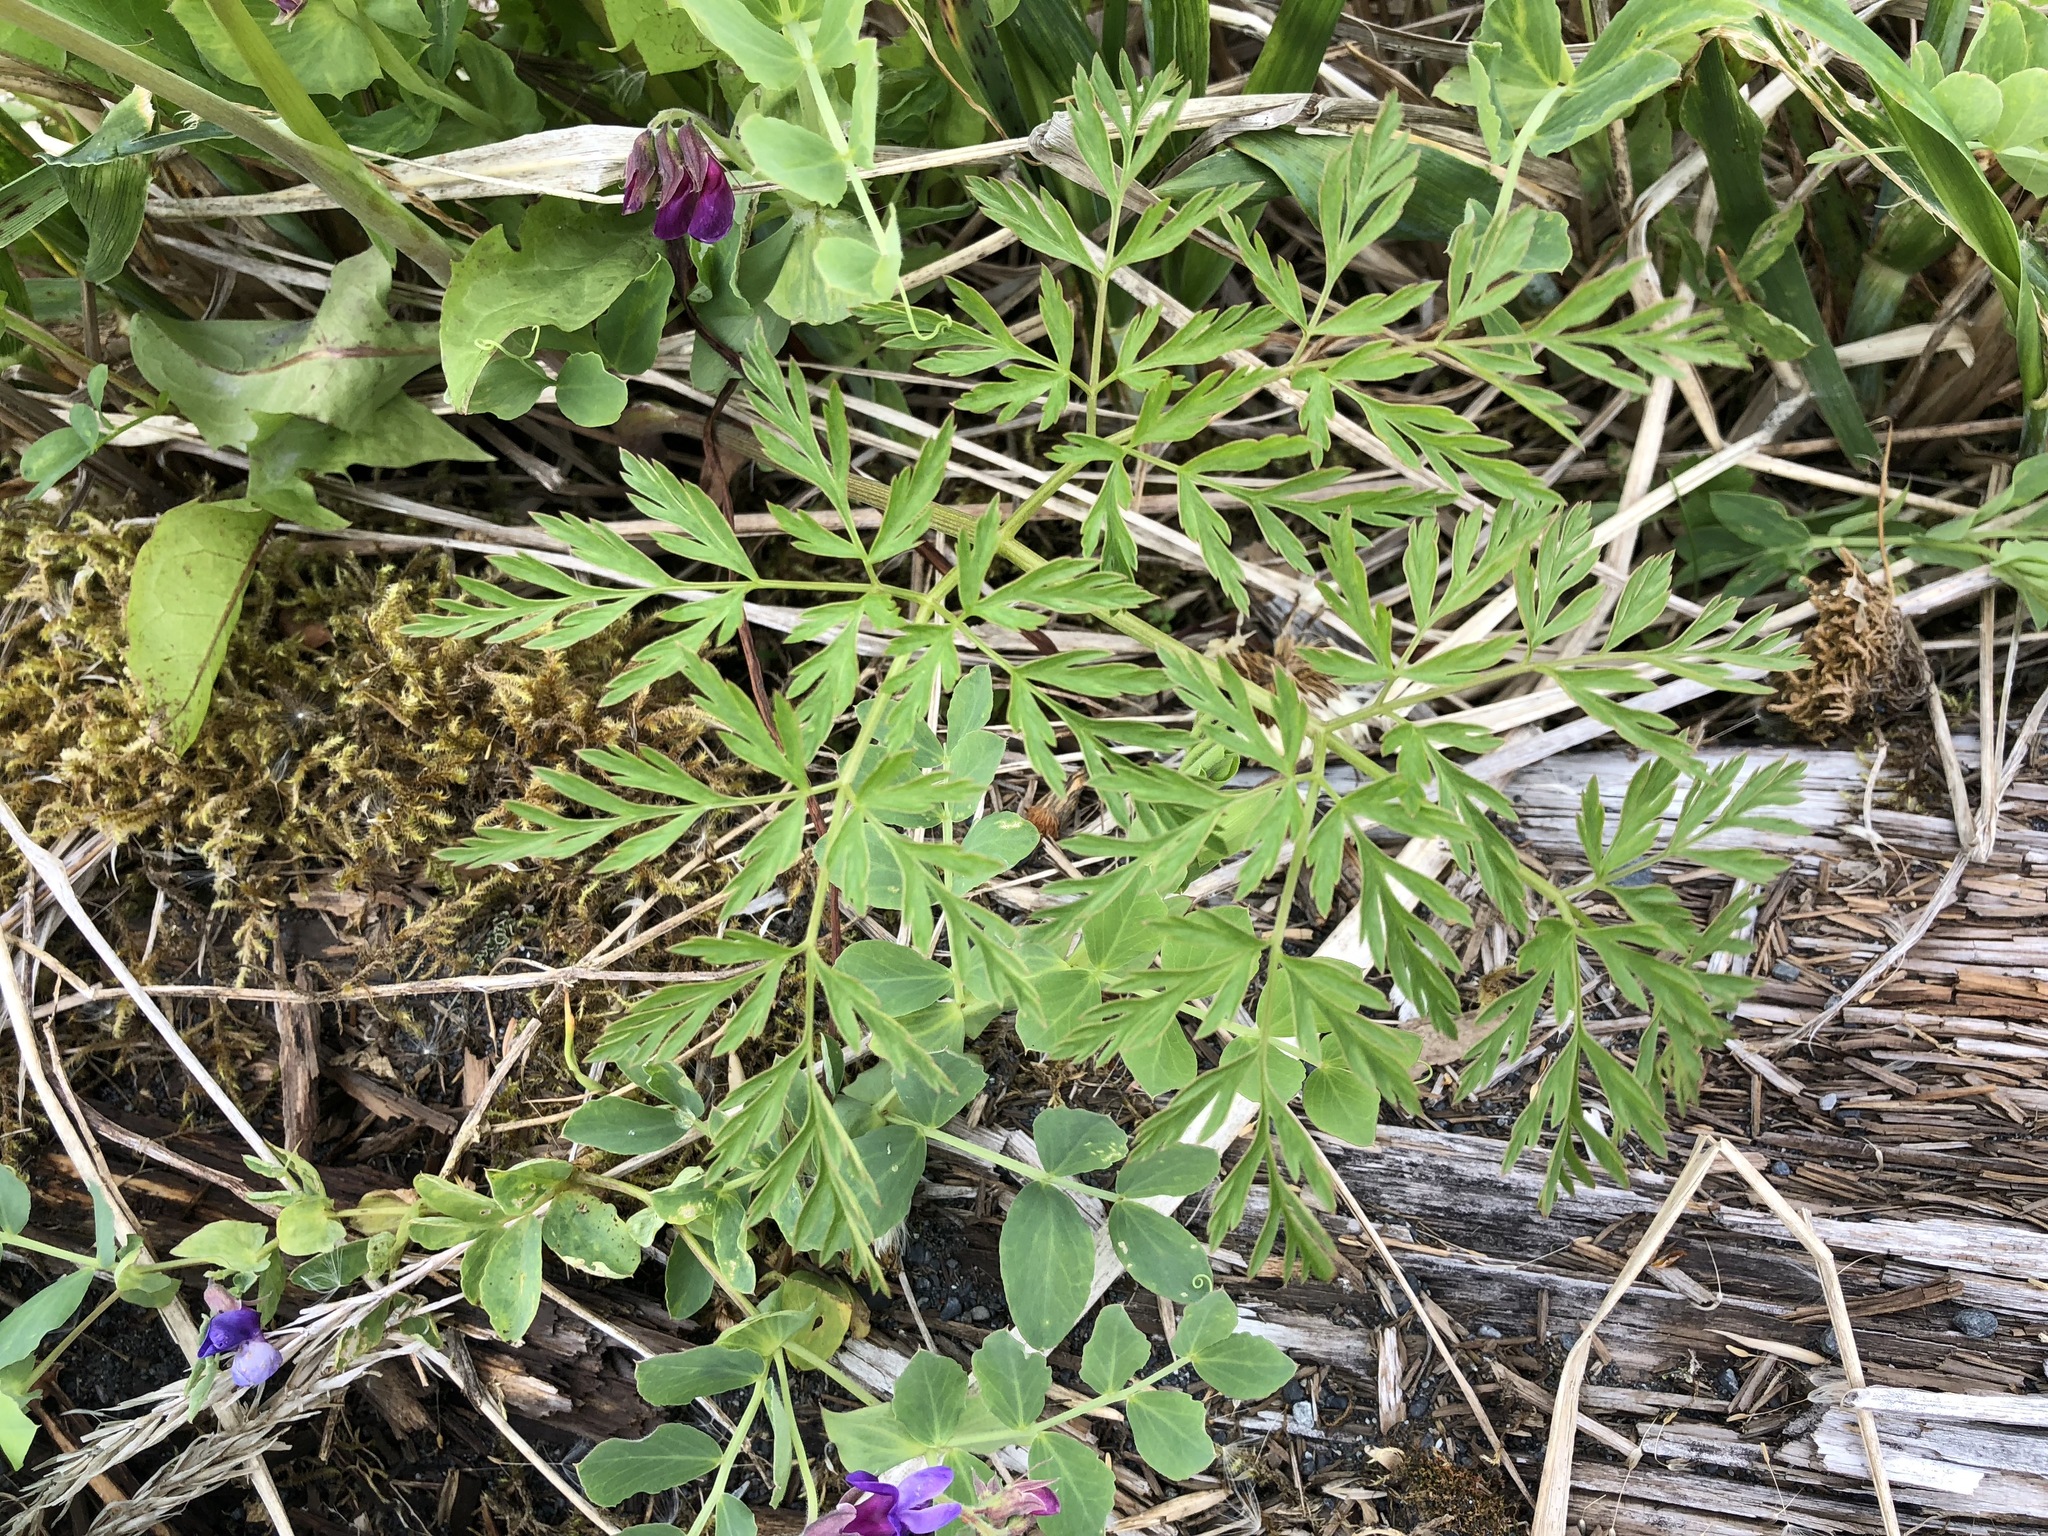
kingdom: Plantae
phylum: Tracheophyta
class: Magnoliopsida
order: Apiales
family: Apiaceae
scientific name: Apiaceae
